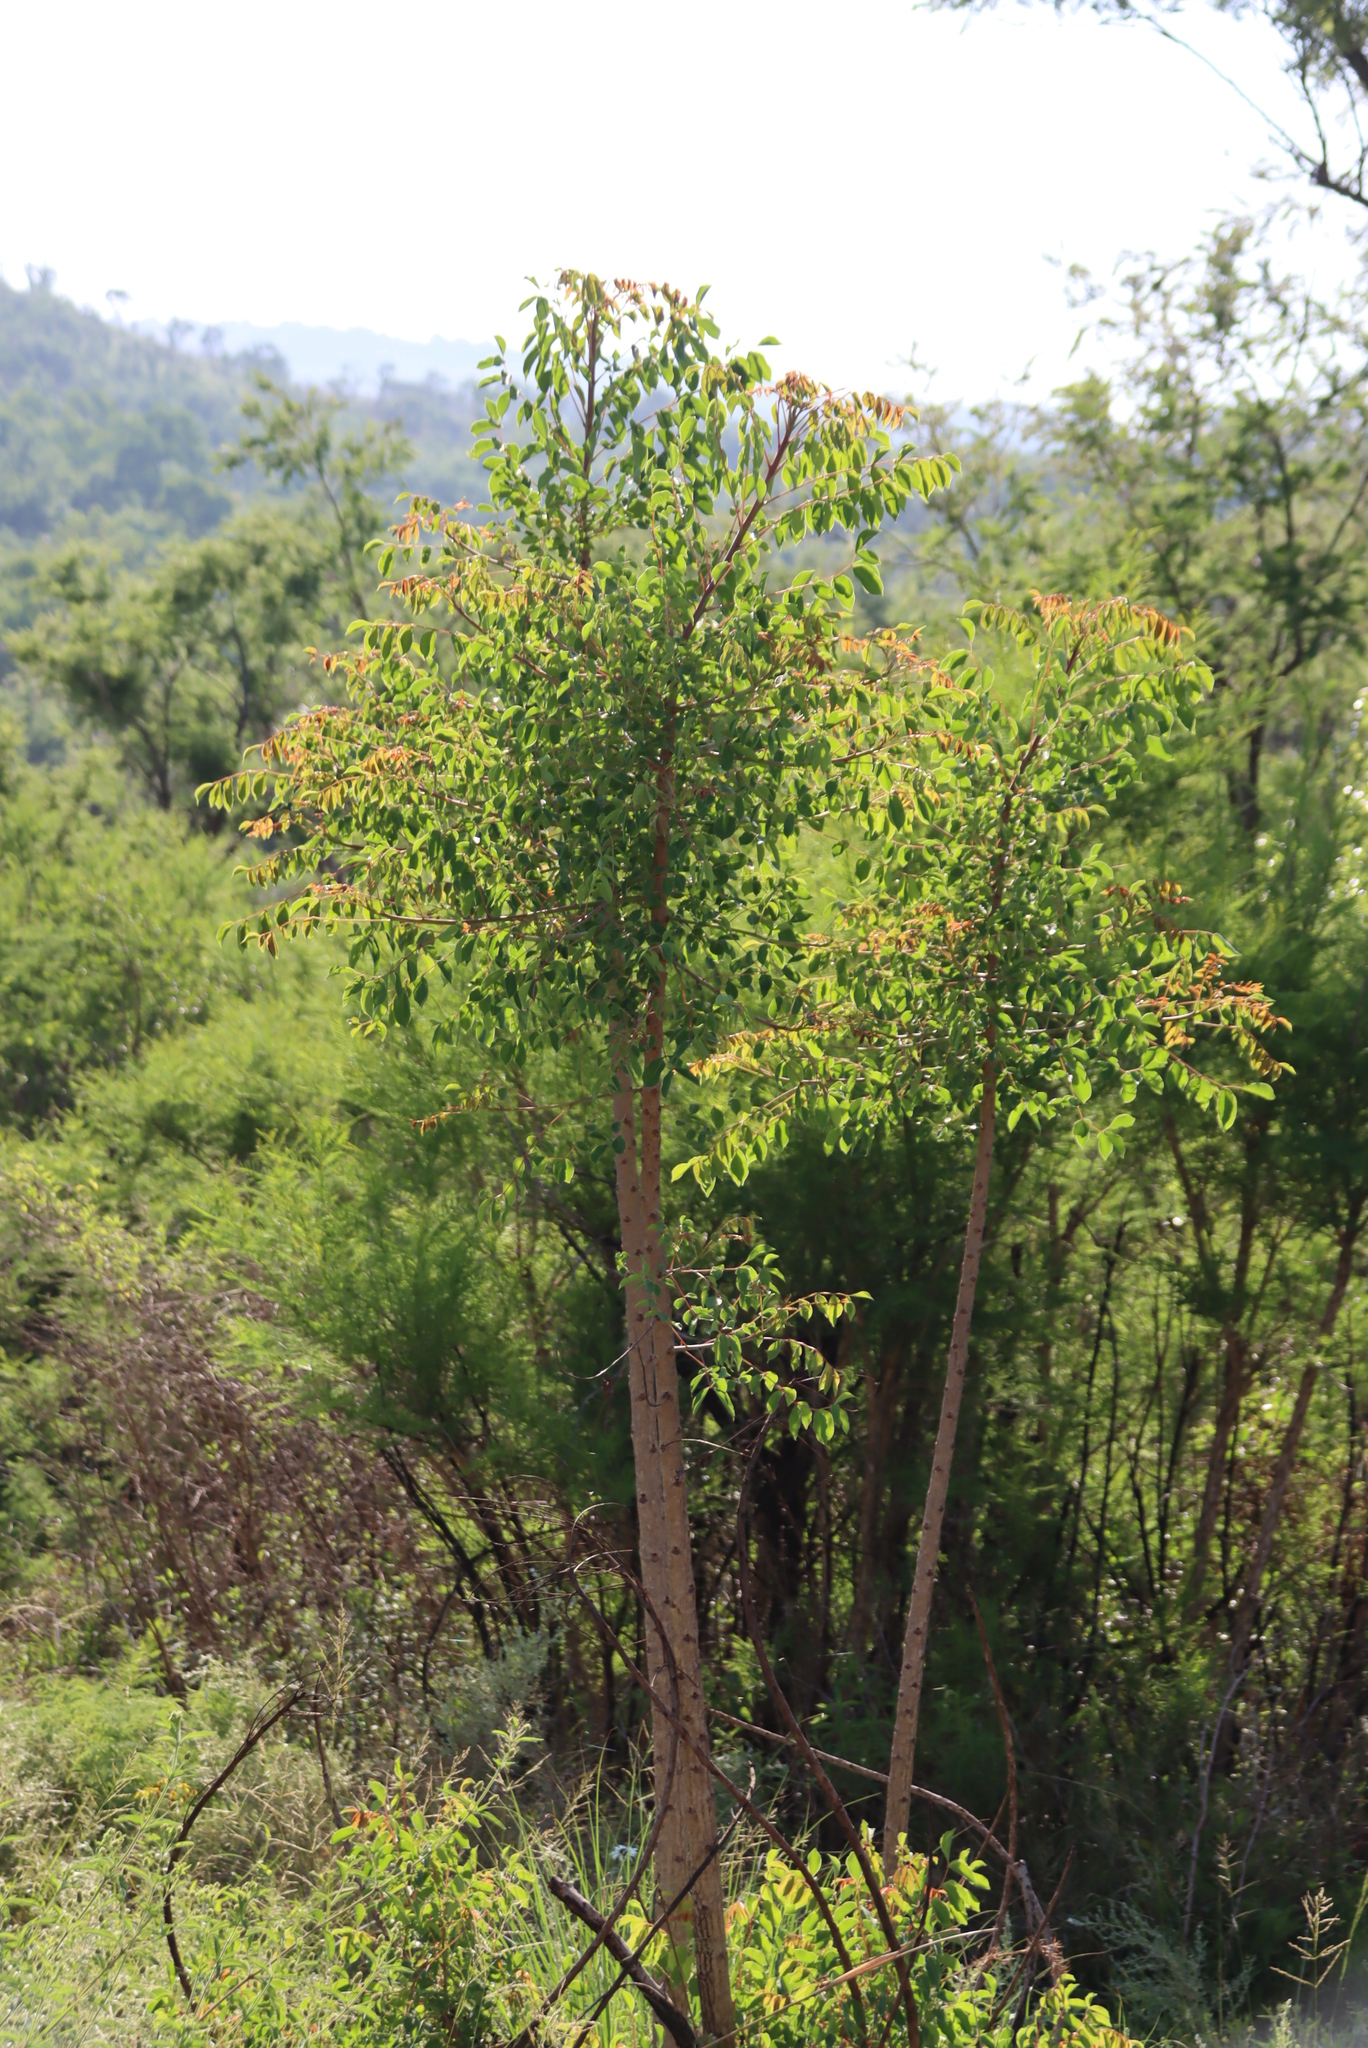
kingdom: Plantae
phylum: Tracheophyta
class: Magnoliopsida
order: Sapindales
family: Anacardiaceae
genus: Sclerocarya
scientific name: Sclerocarya birrea
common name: Marula
